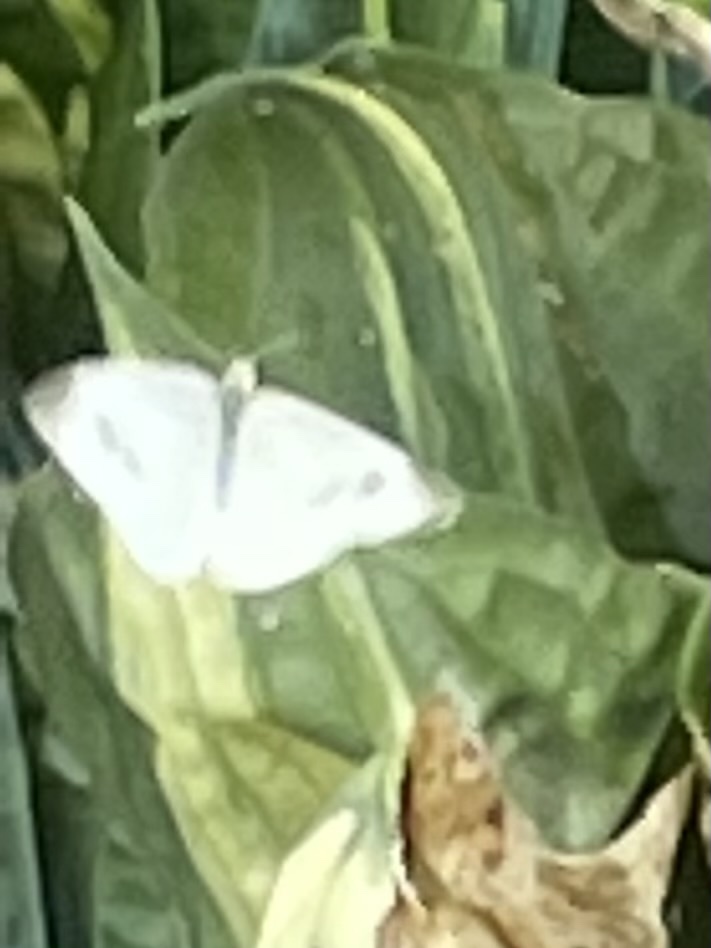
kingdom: Animalia
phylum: Arthropoda
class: Insecta
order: Lepidoptera
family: Pieridae
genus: Pieris
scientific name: Pieris rapae
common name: Small white
